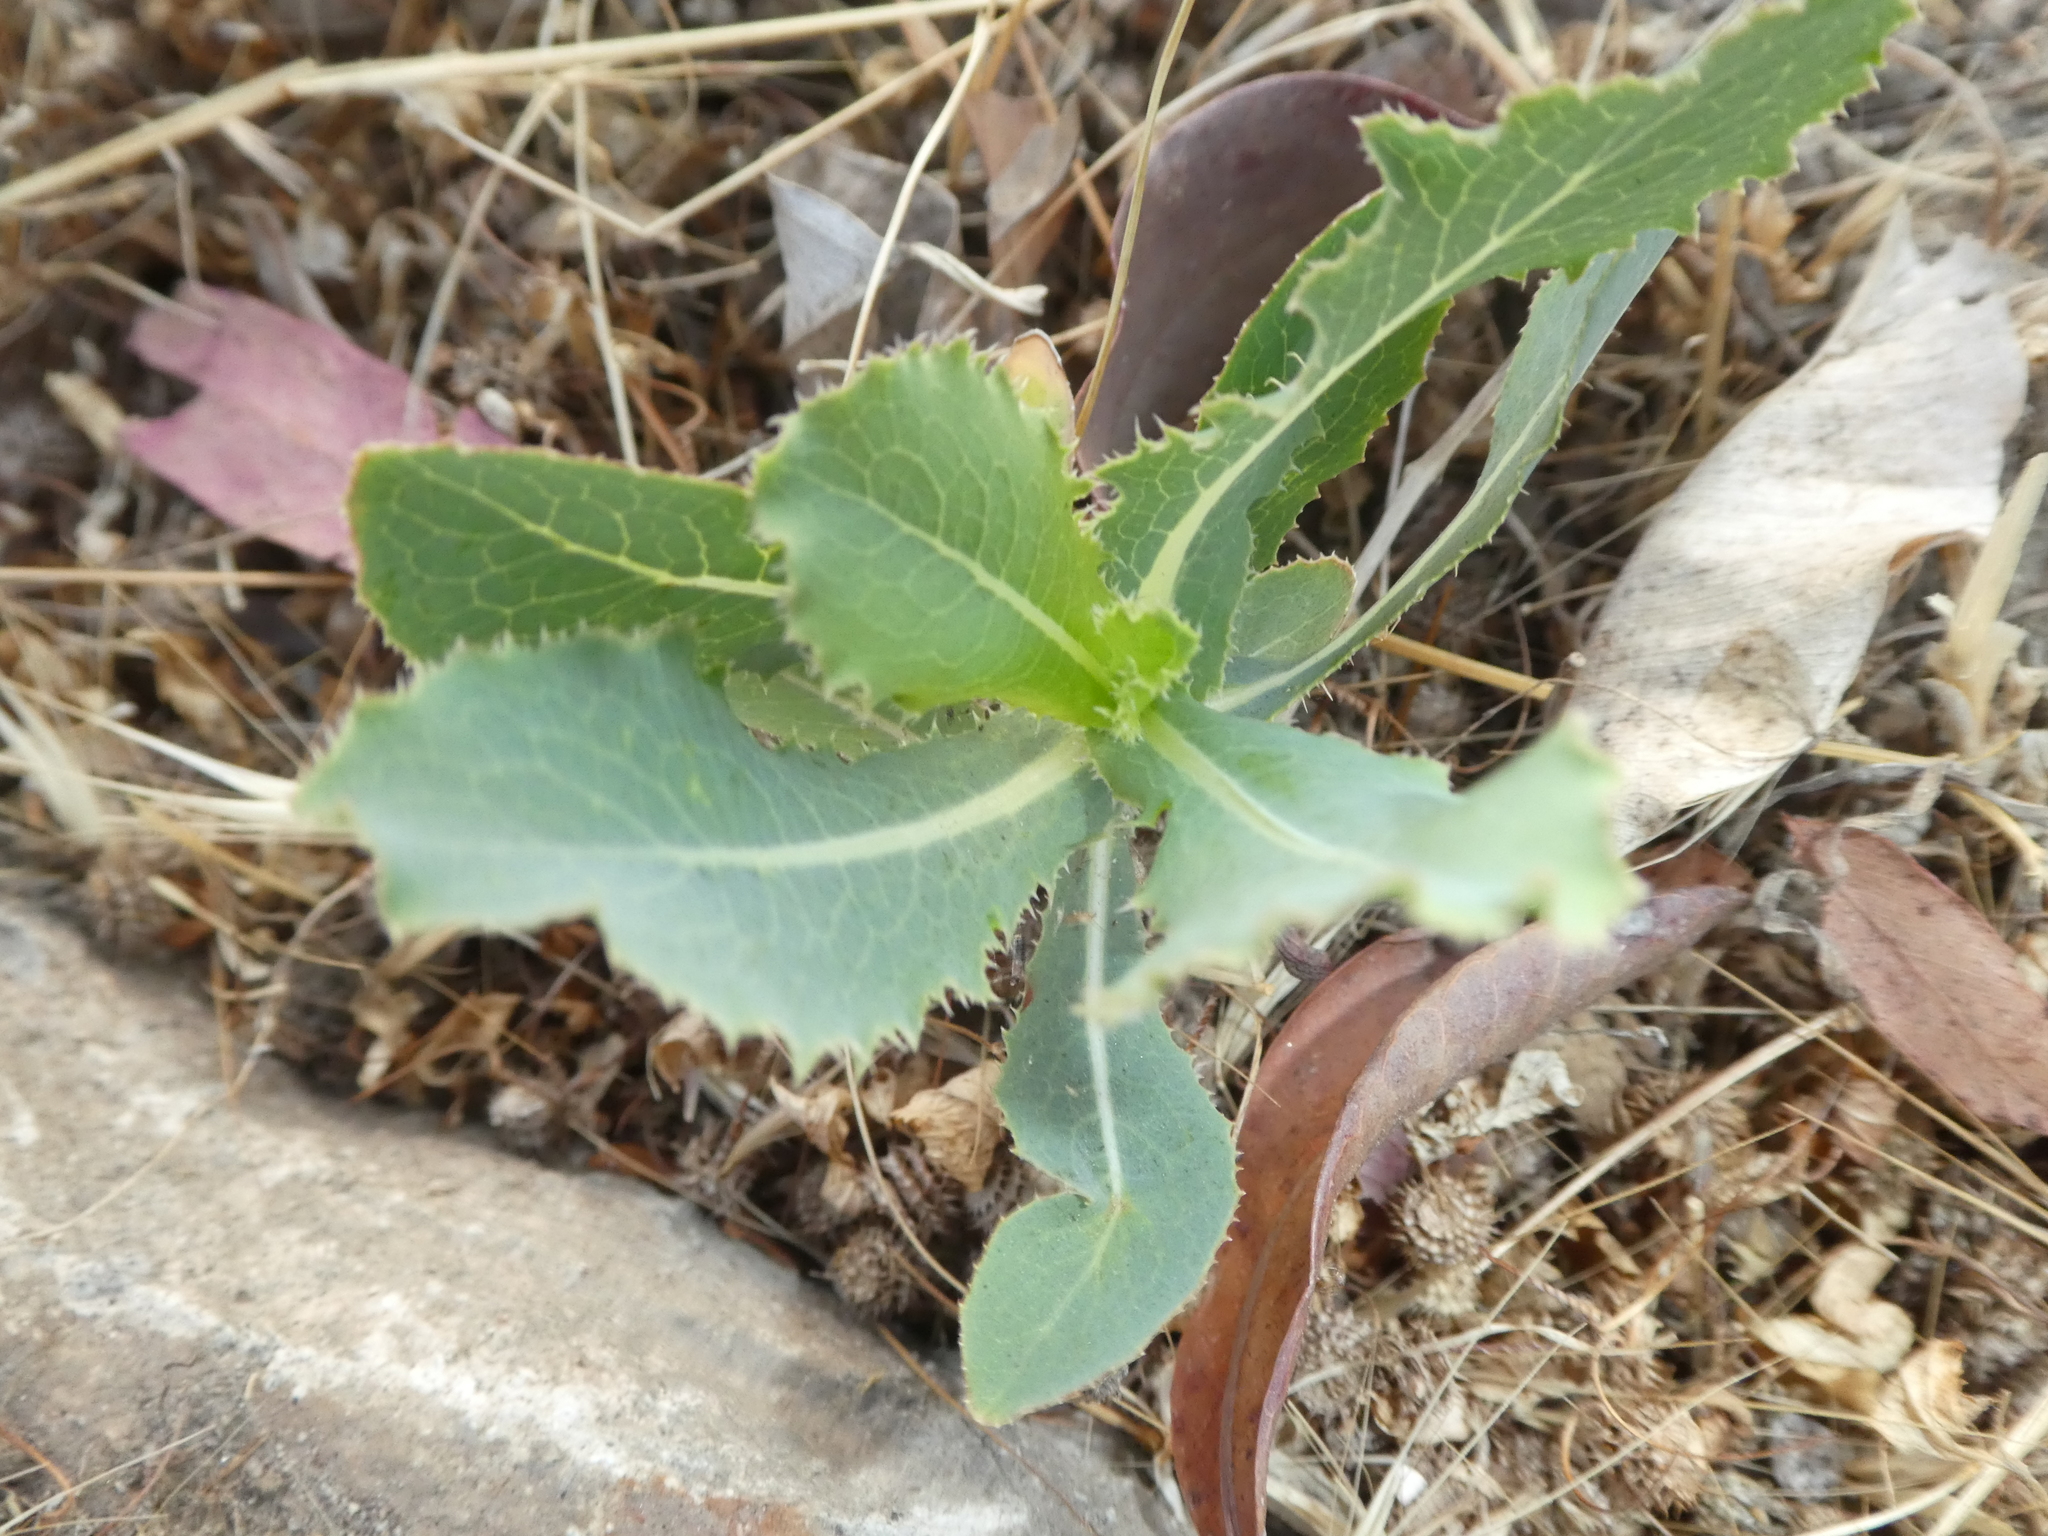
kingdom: Plantae
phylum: Tracheophyta
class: Magnoliopsida
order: Asterales
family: Asteraceae
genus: Lactuca
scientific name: Lactuca serriola
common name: Prickly lettuce
